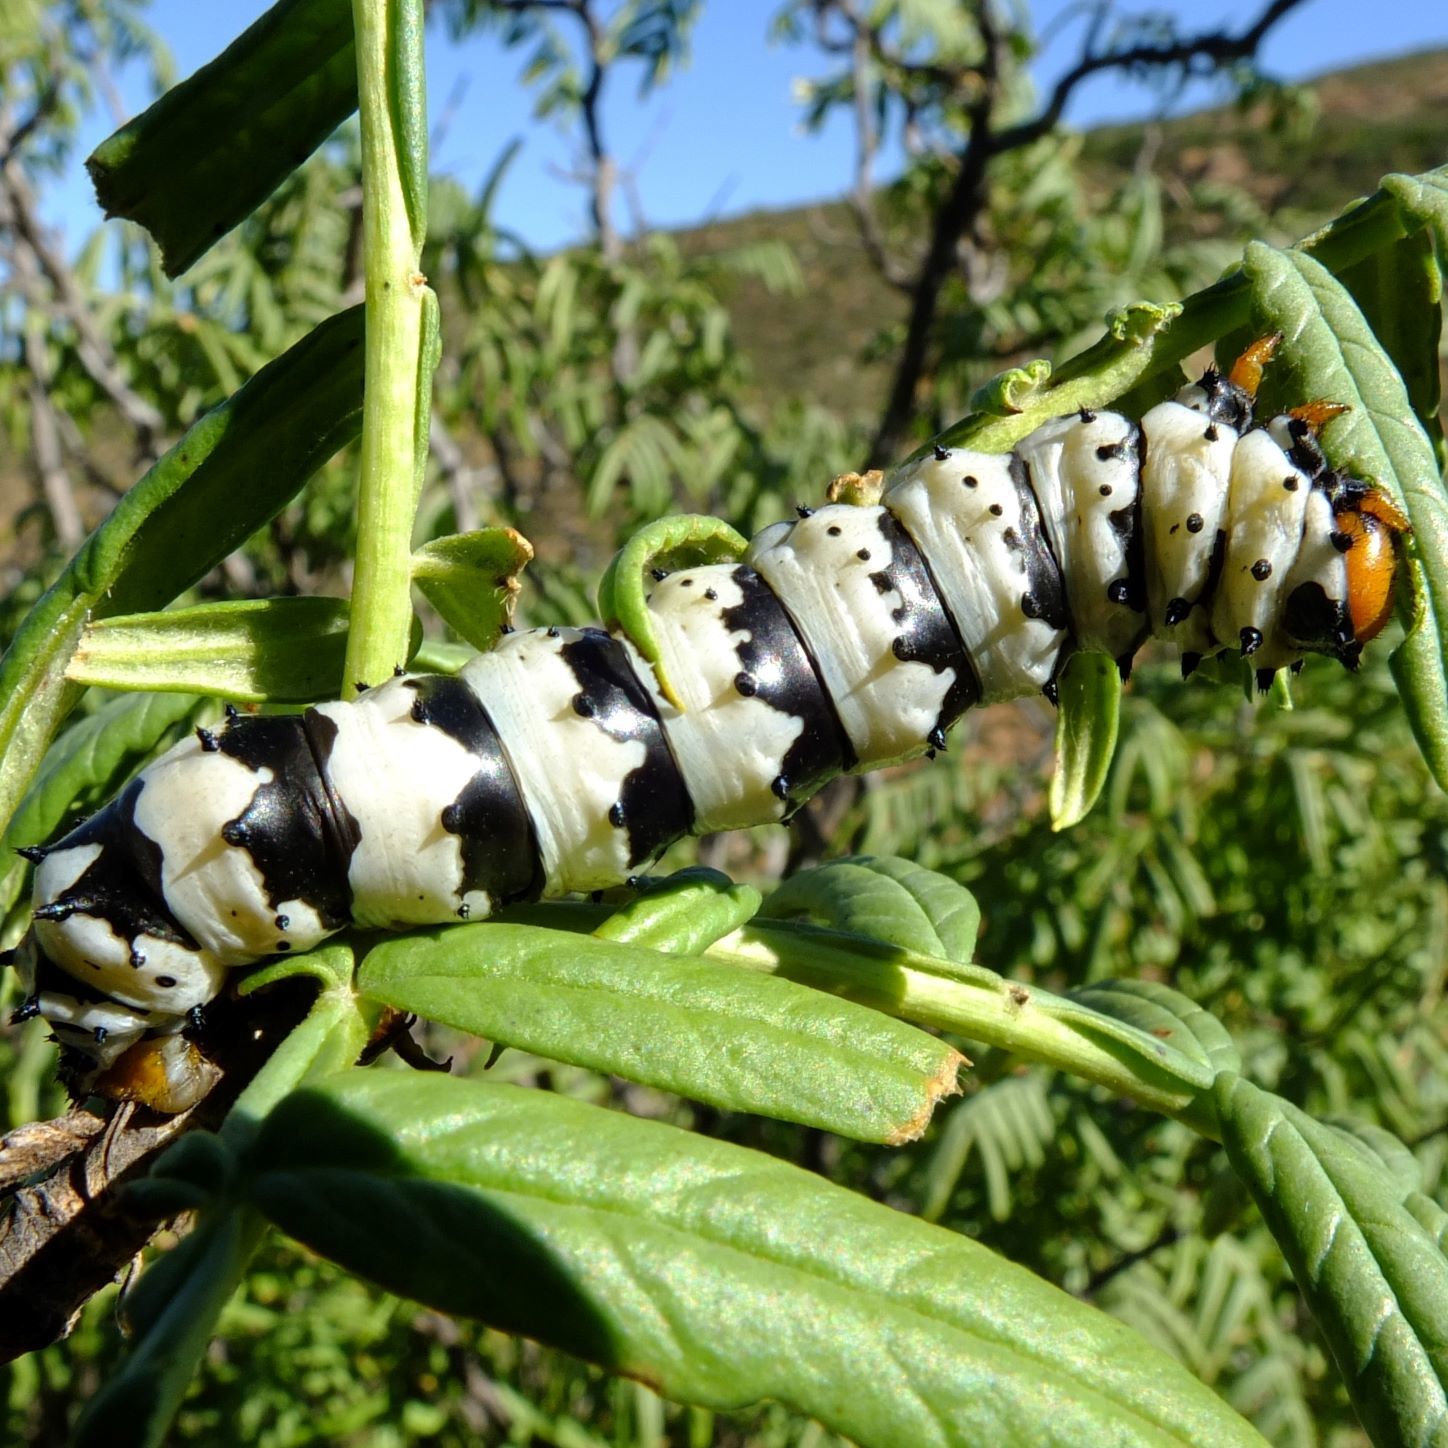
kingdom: Animalia
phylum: Arthropoda
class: Insecta
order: Lepidoptera
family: Saturniidae
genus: Eochroa
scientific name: Eochroa trimeni
